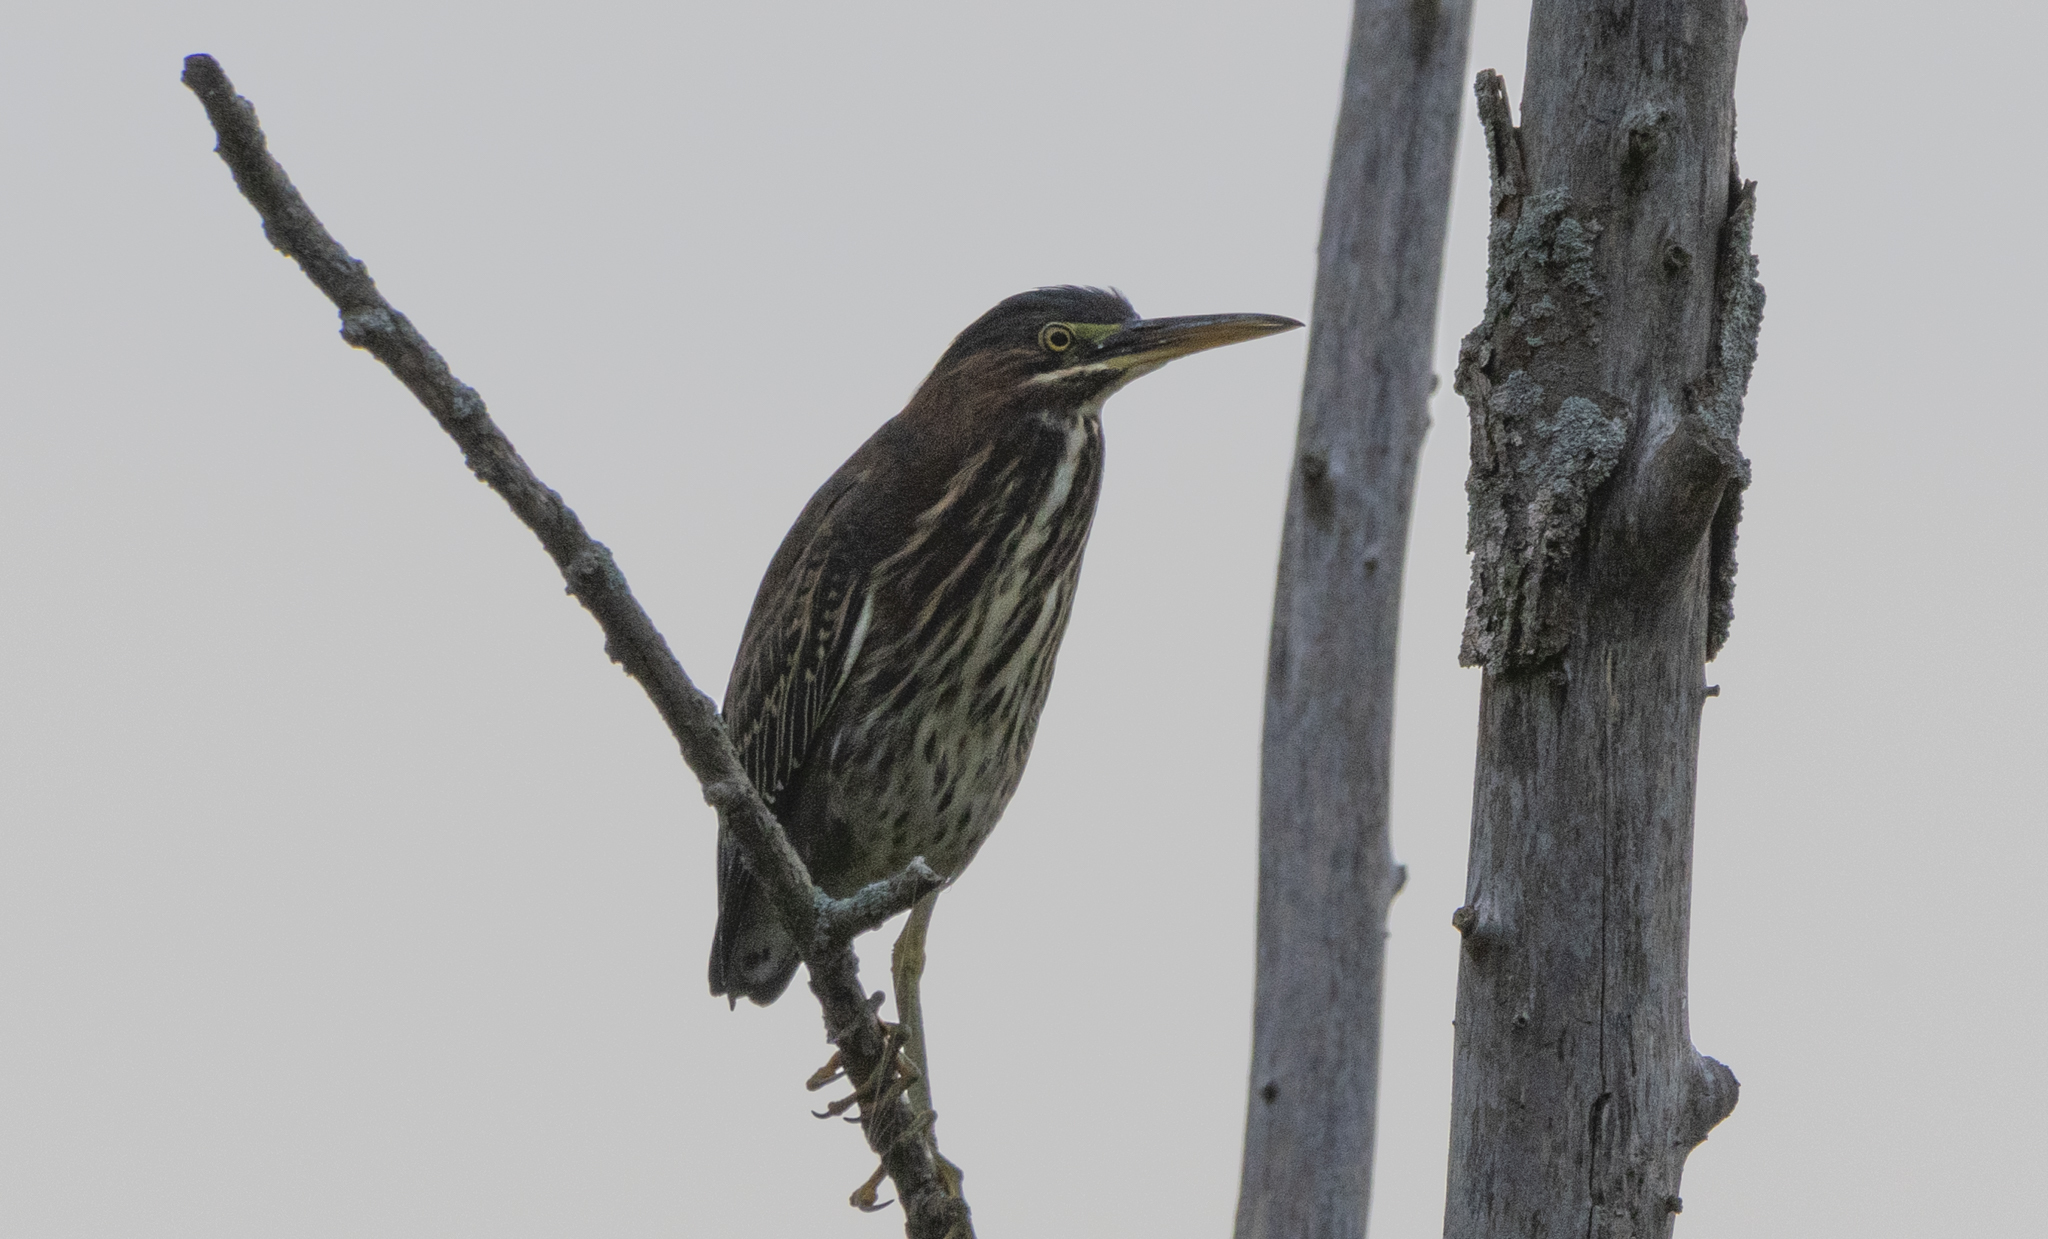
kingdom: Animalia
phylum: Chordata
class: Aves
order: Pelecaniformes
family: Ardeidae
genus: Butorides
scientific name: Butorides virescens
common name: Green heron
